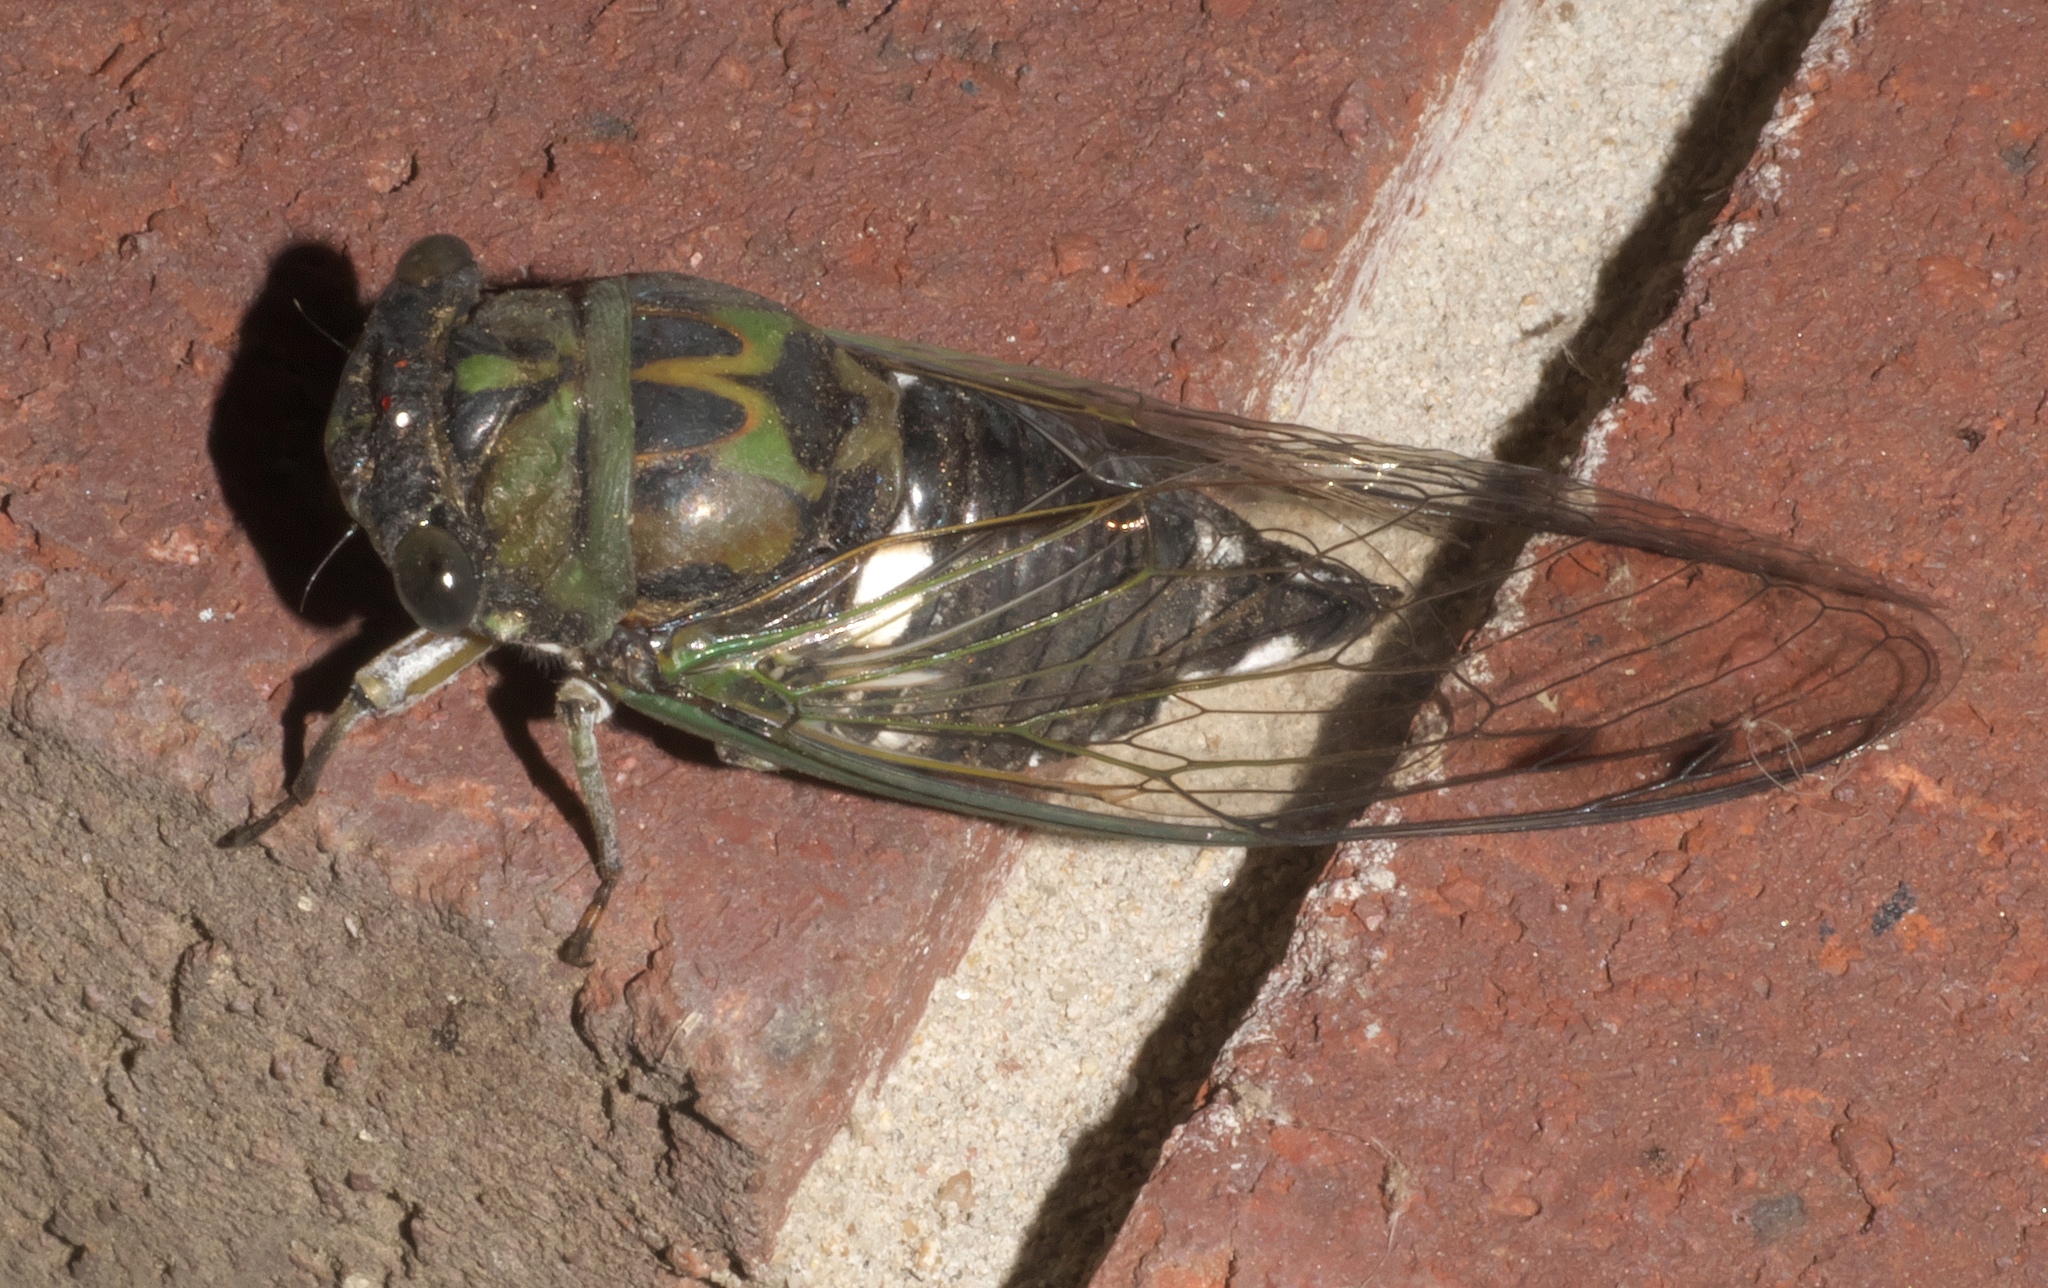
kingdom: Animalia
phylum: Arthropoda
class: Insecta
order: Hemiptera
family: Cicadidae
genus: Neotibicen
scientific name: Neotibicen pruinosus
